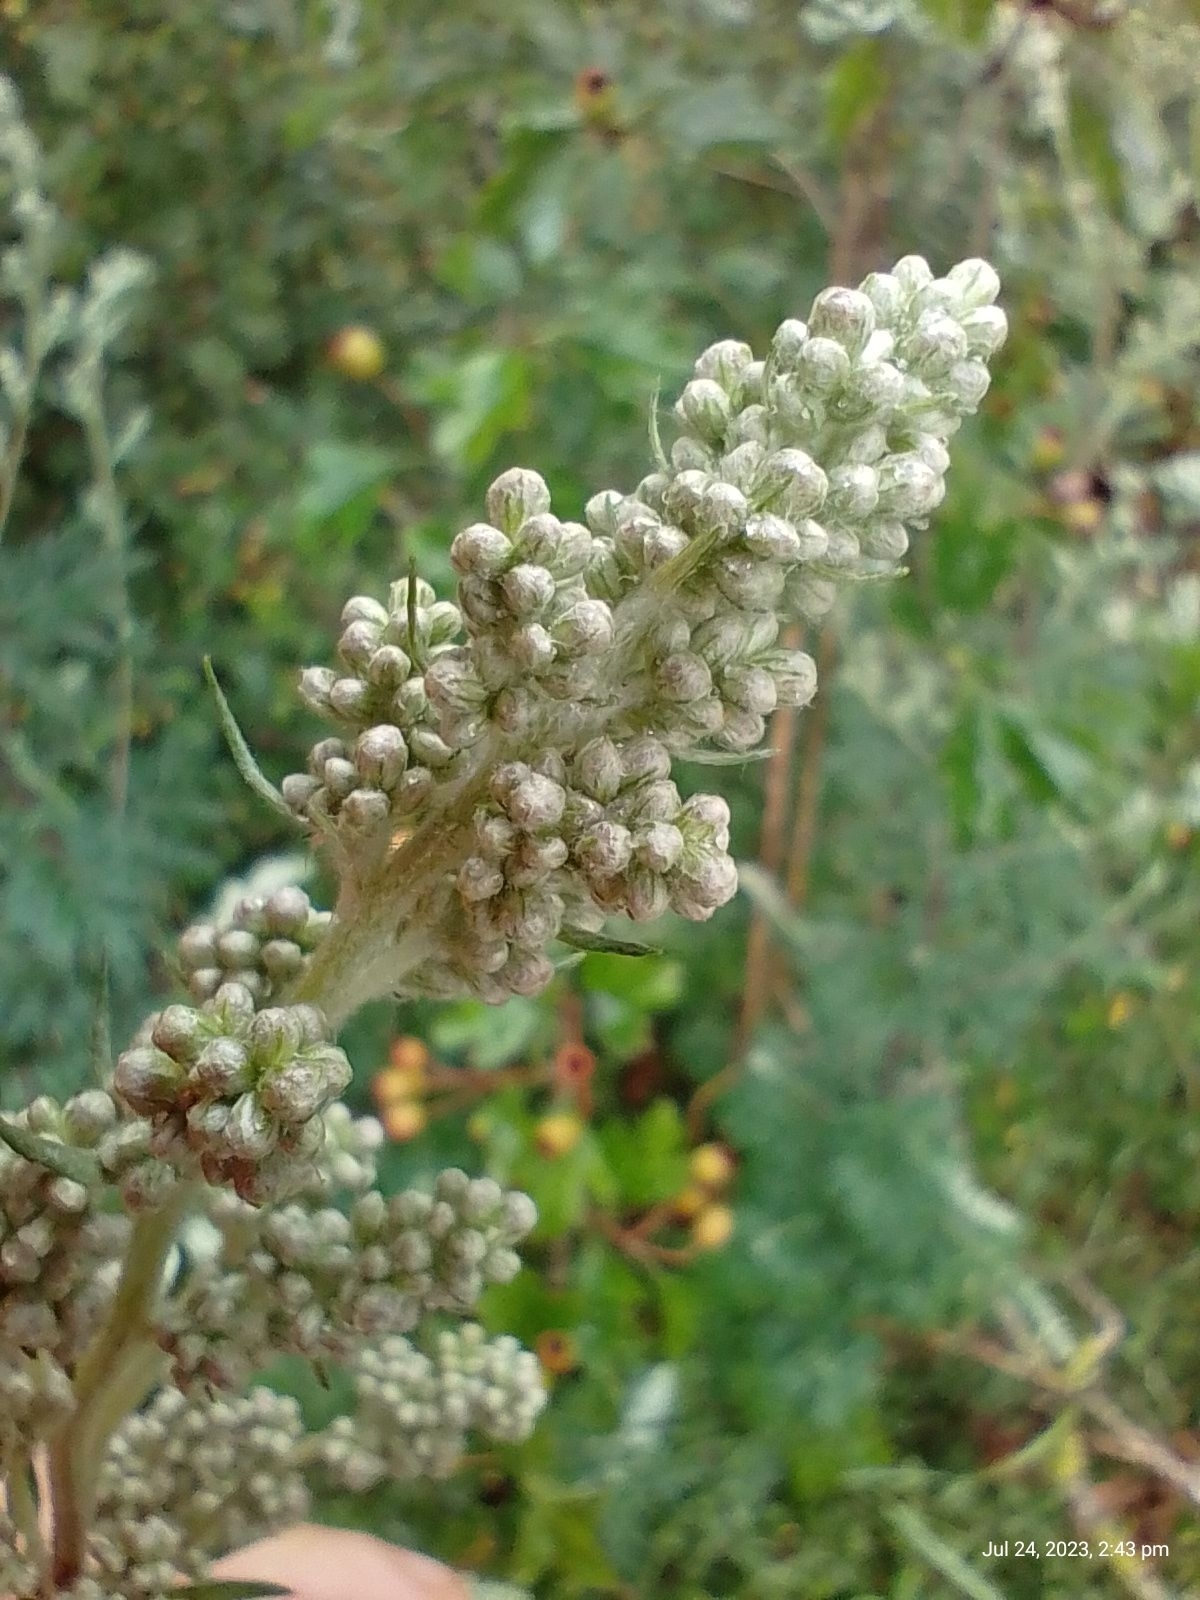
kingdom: Plantae
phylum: Tracheophyta
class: Magnoliopsida
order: Asterales
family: Asteraceae
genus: Artemisia
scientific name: Artemisia vulgaris
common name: Mugwort
